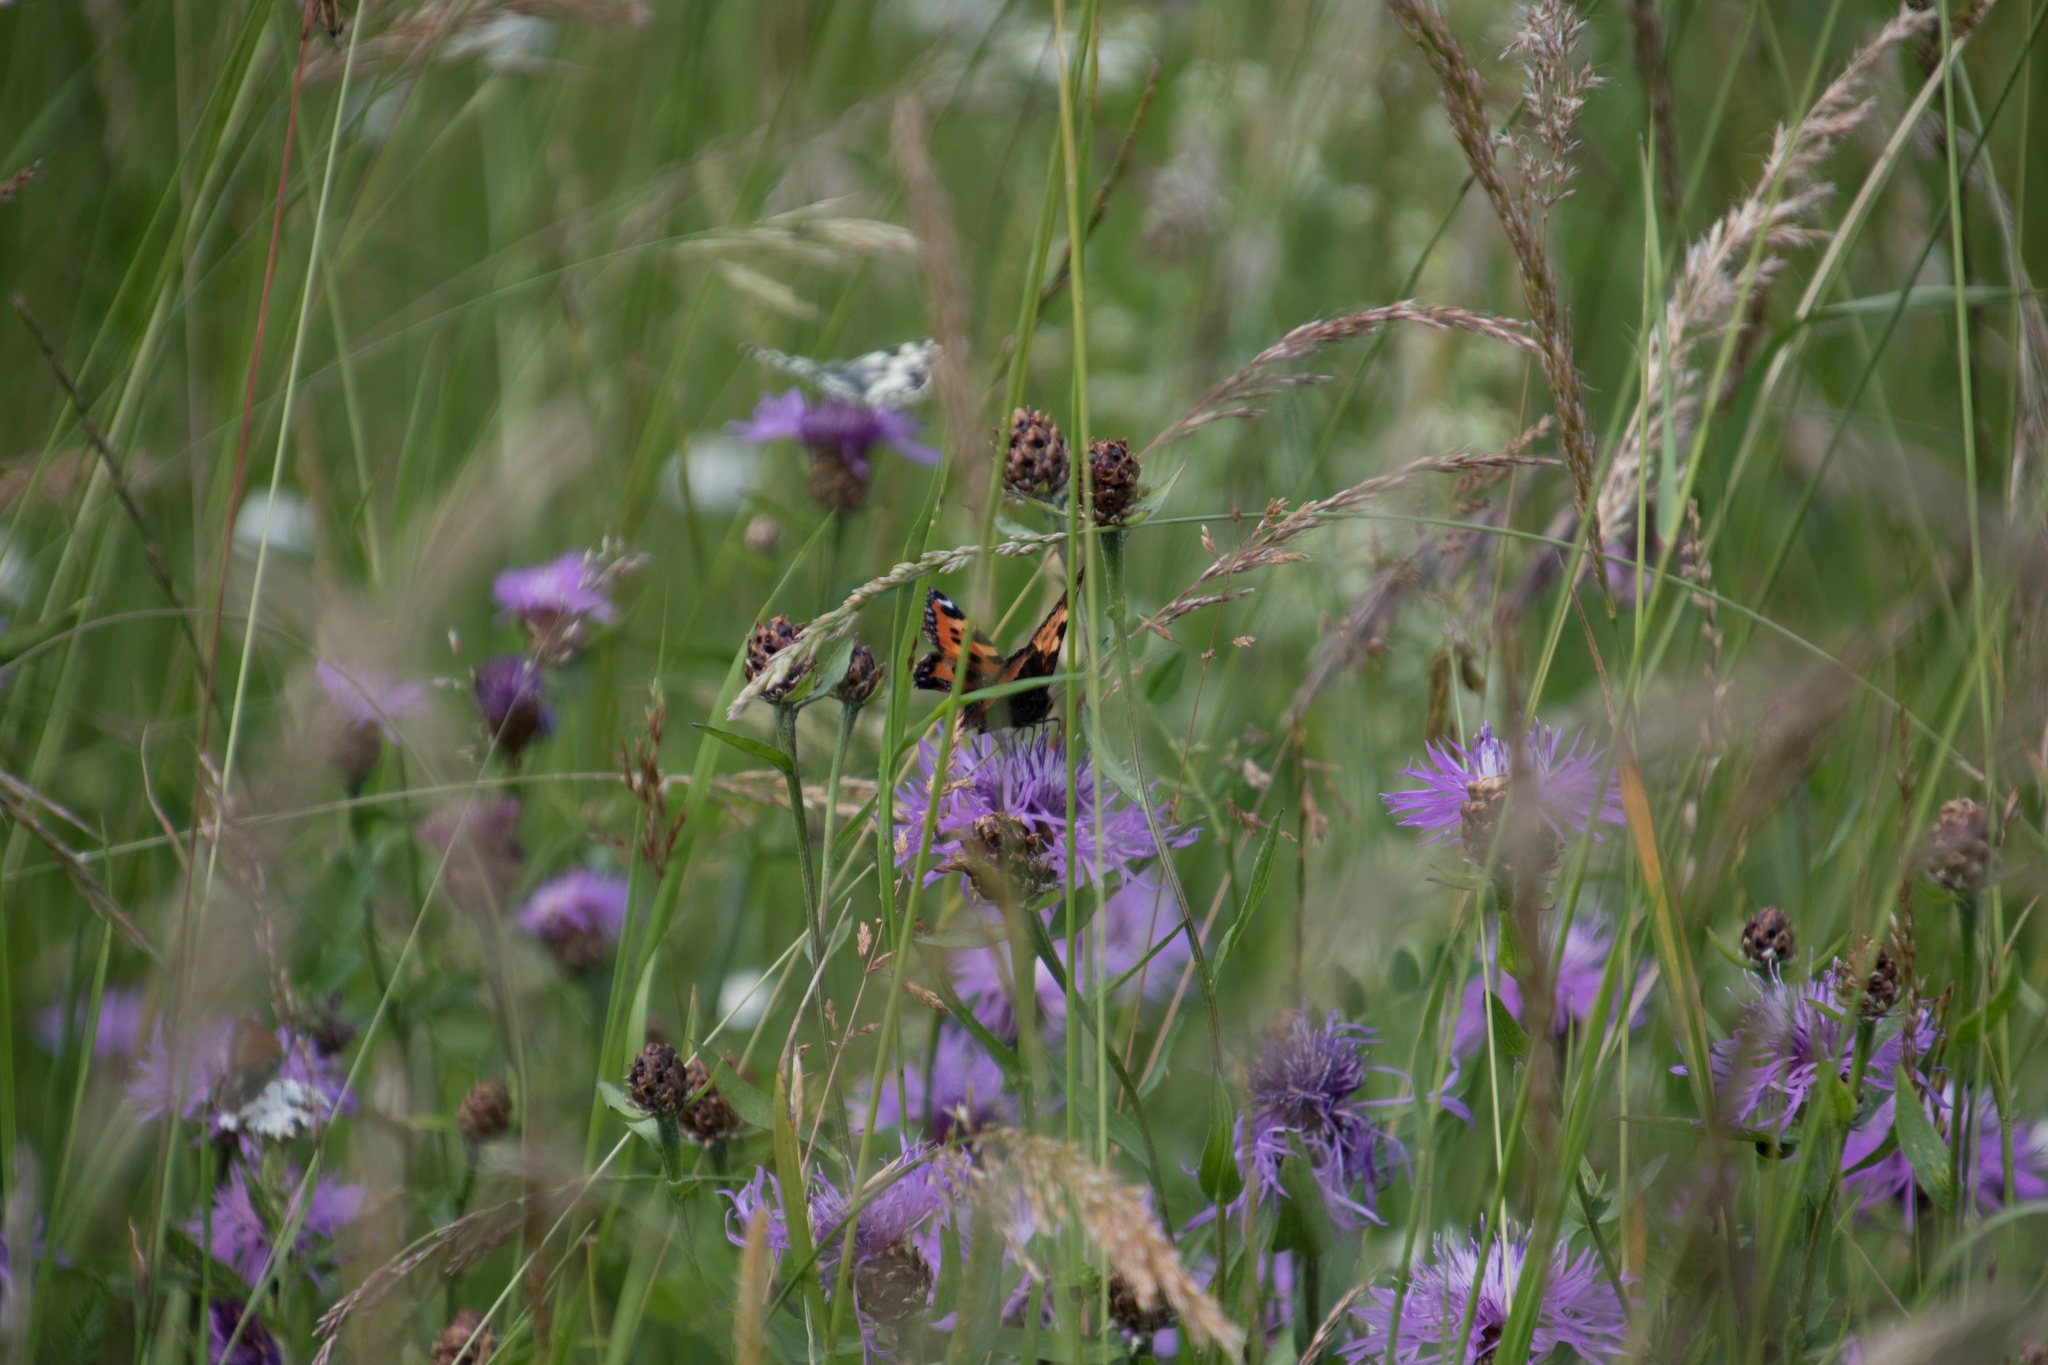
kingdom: Animalia
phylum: Arthropoda
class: Insecta
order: Lepidoptera
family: Nymphalidae
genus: Aglais
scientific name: Aglais urticae
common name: Small tortoiseshell
